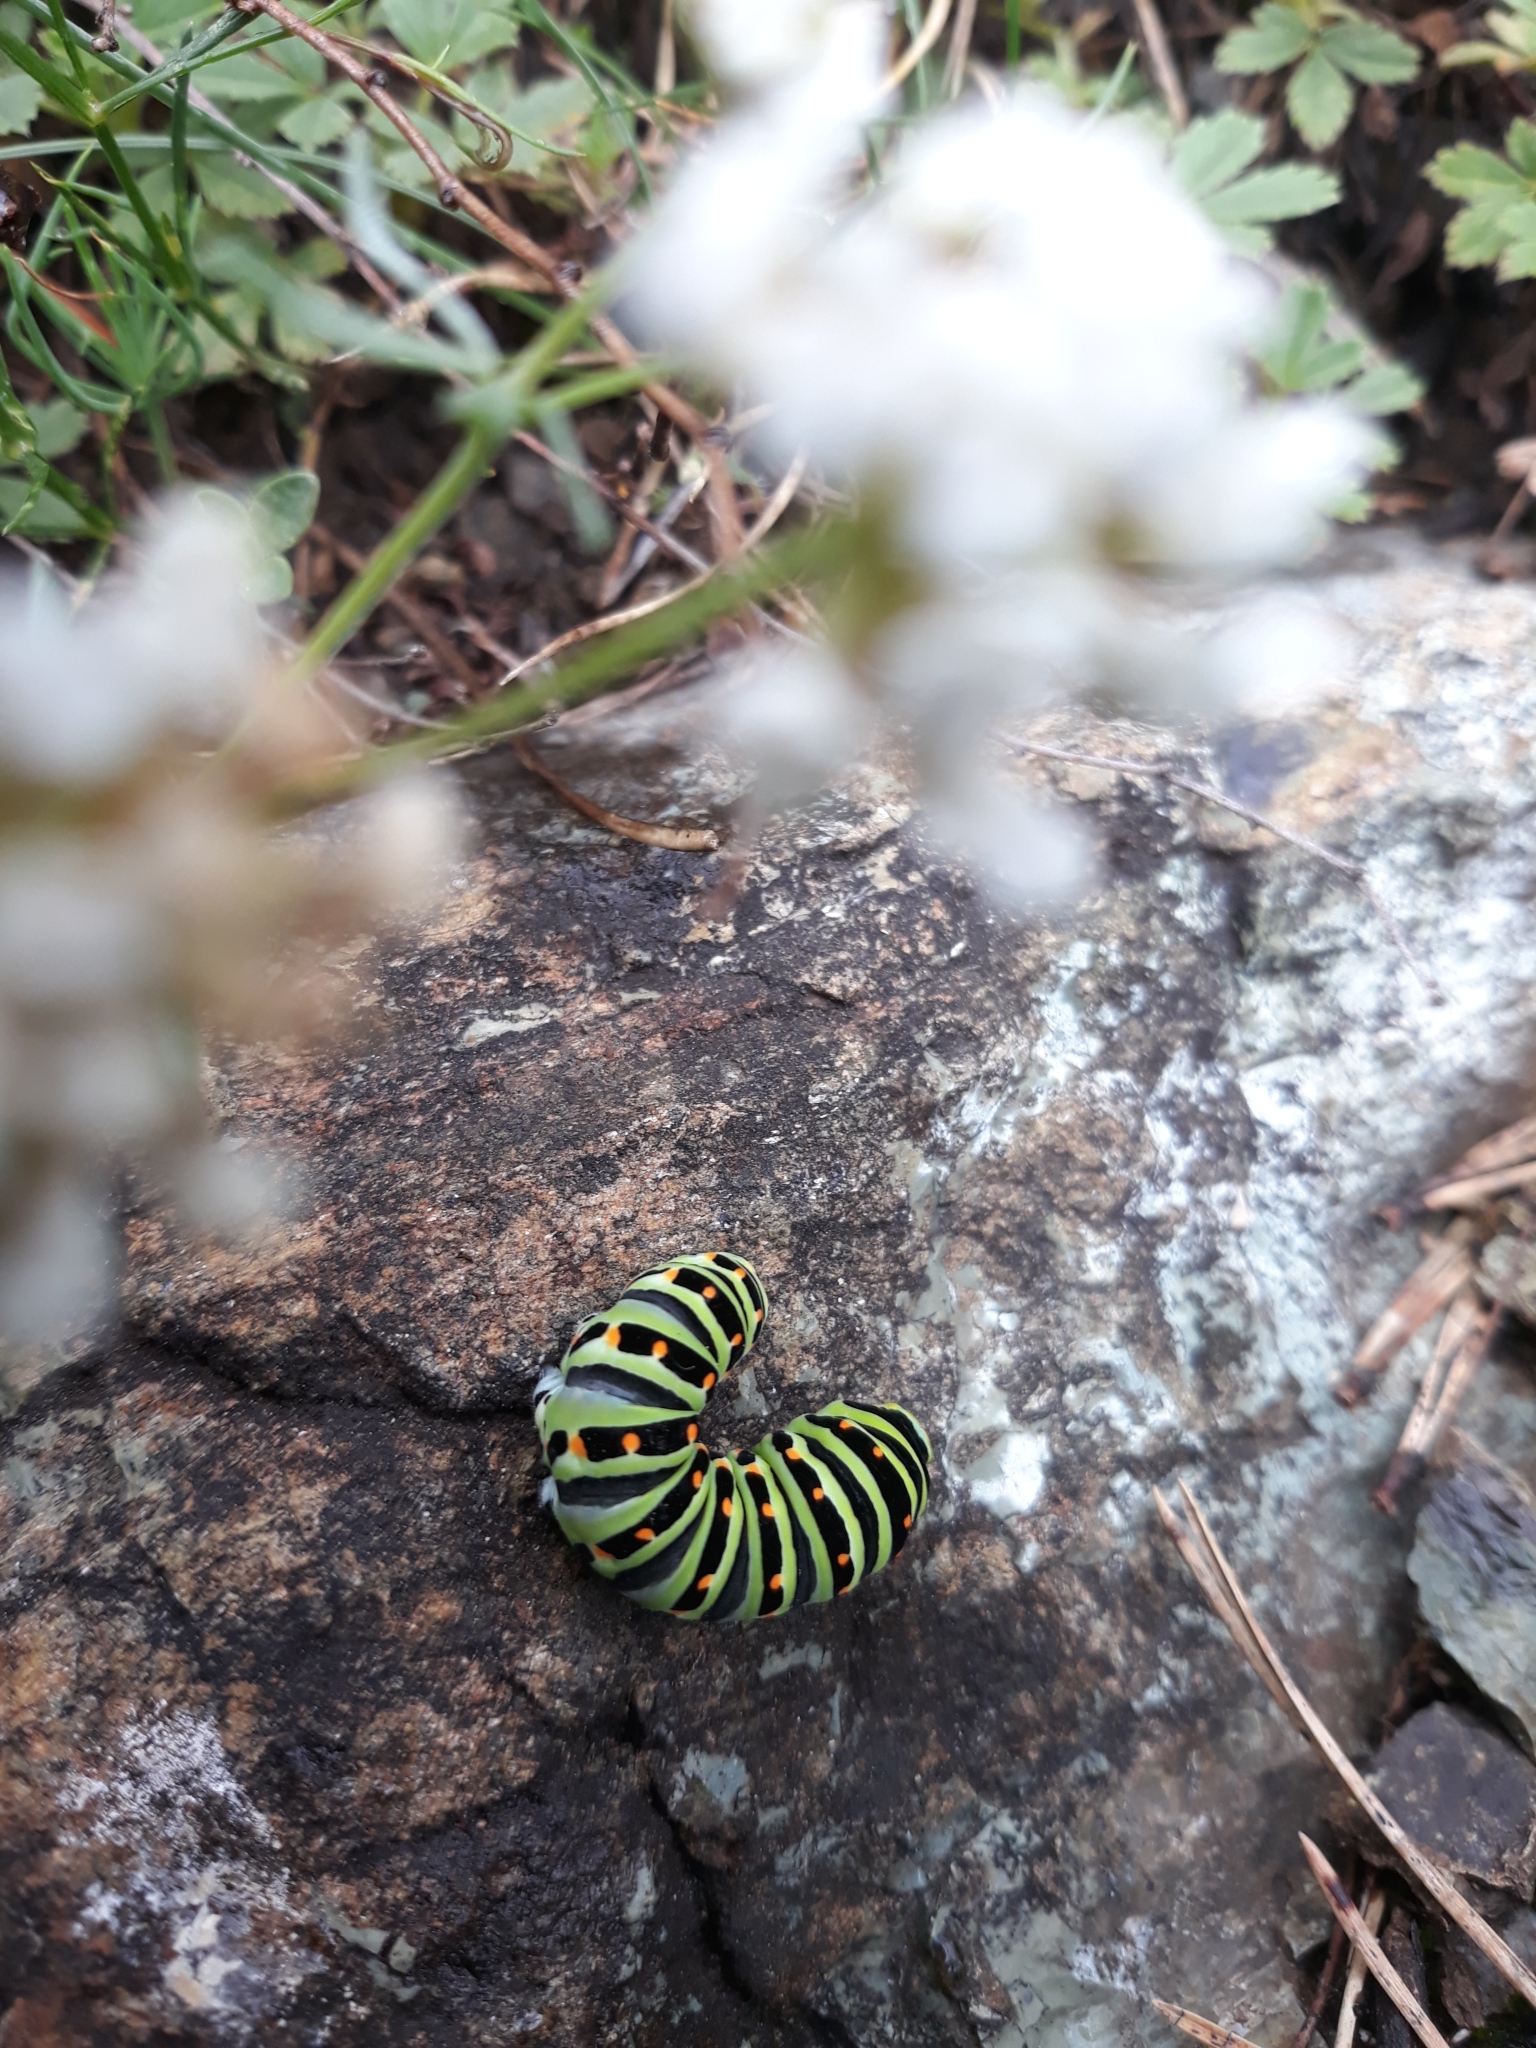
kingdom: Animalia
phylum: Arthropoda
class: Insecta
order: Lepidoptera
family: Papilionidae
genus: Papilio
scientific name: Papilio machaon
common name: Swallowtail
